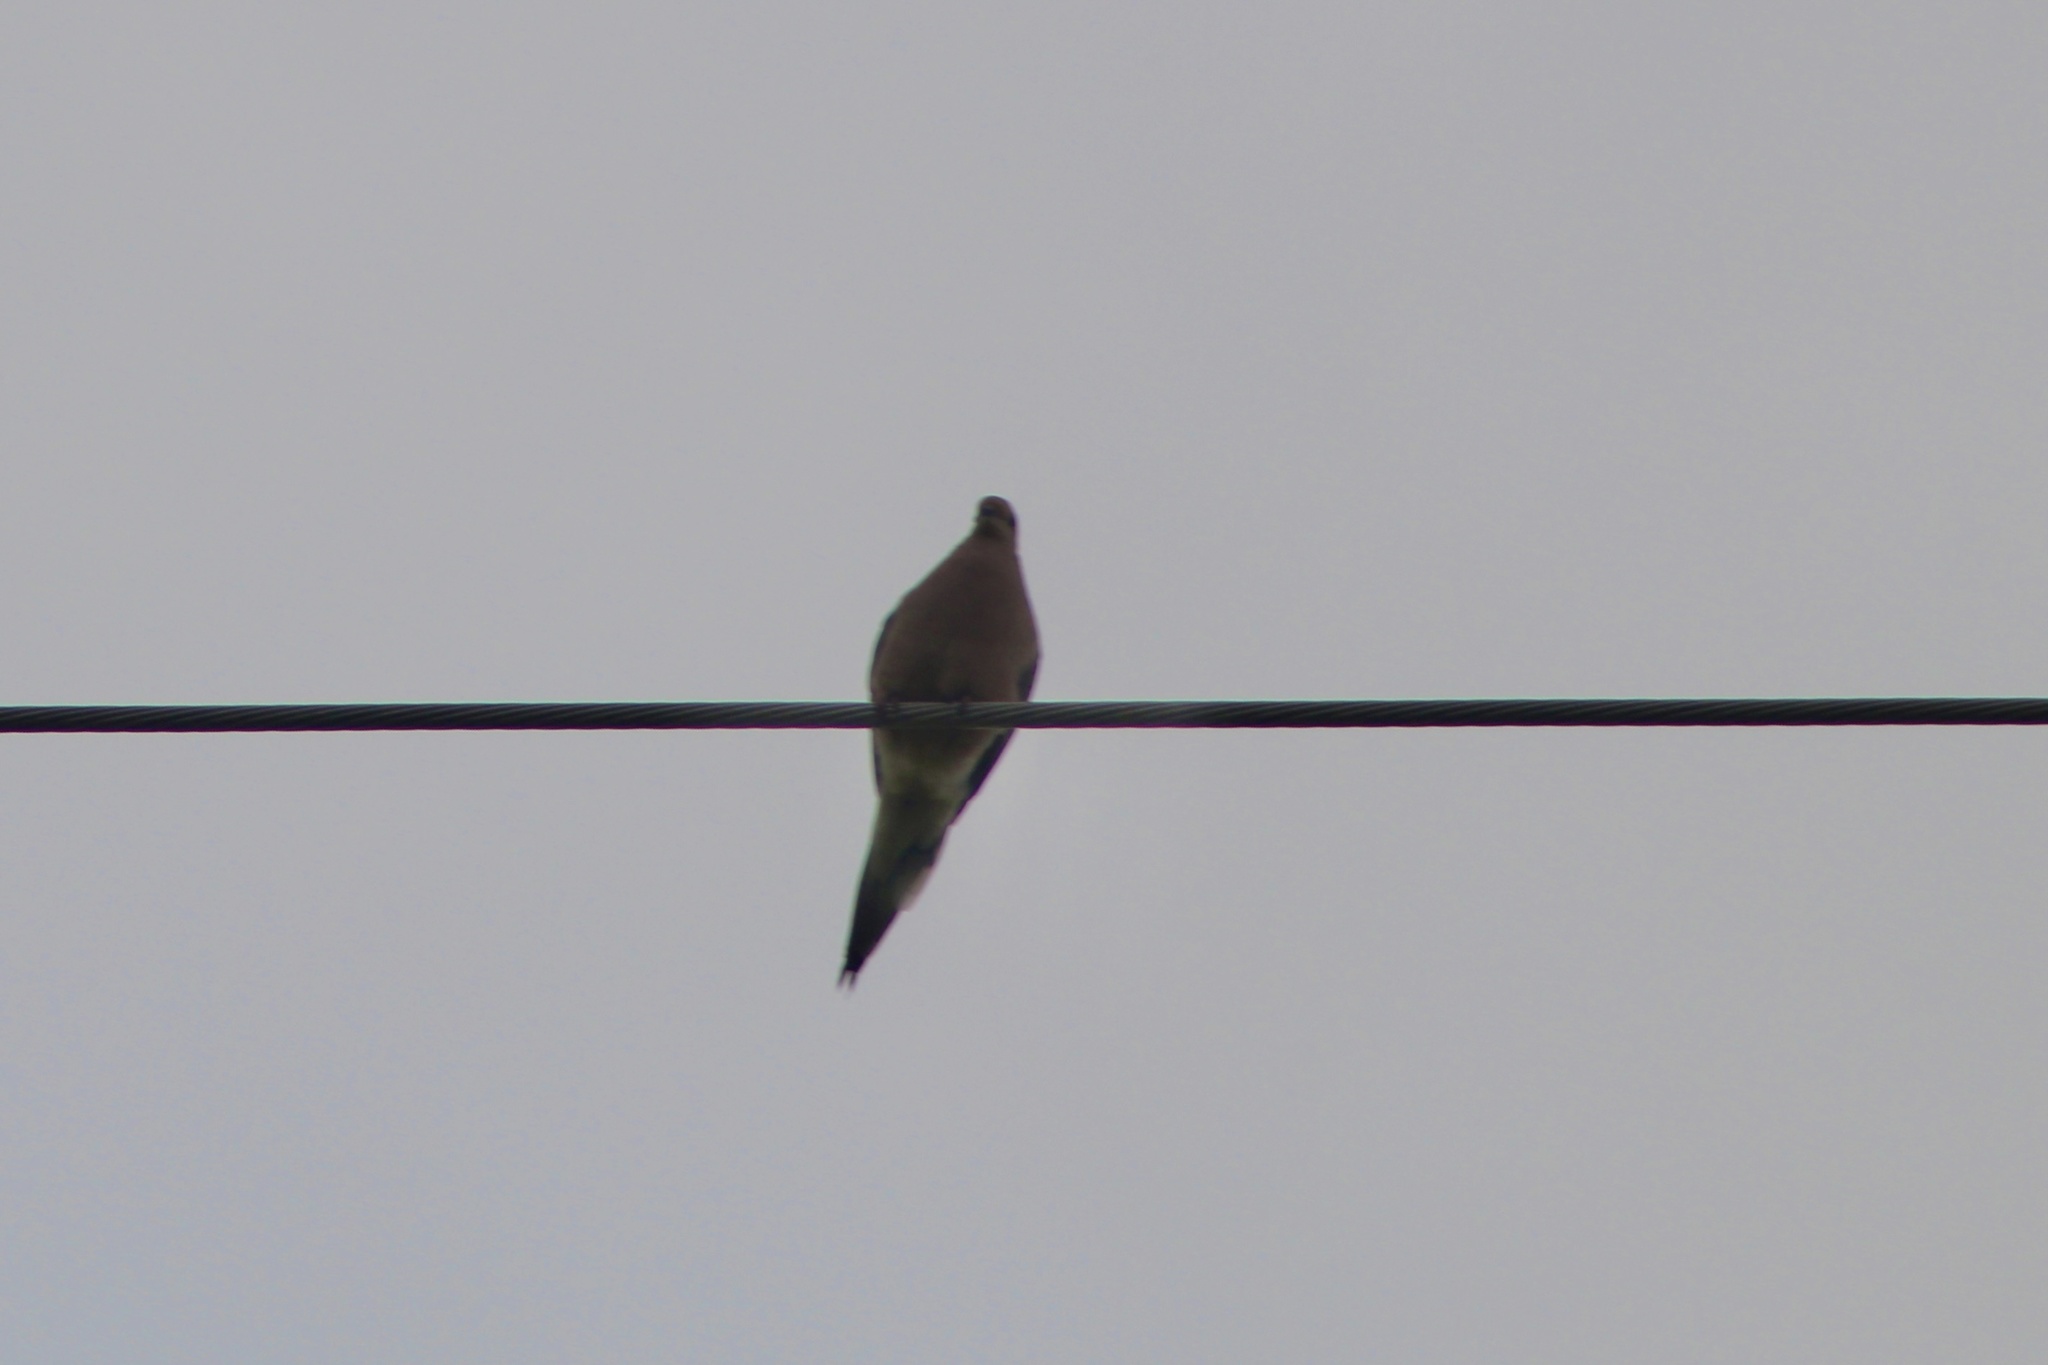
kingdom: Animalia
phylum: Chordata
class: Aves
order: Columbiformes
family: Columbidae
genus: Zenaida
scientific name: Zenaida macroura
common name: Mourning dove
